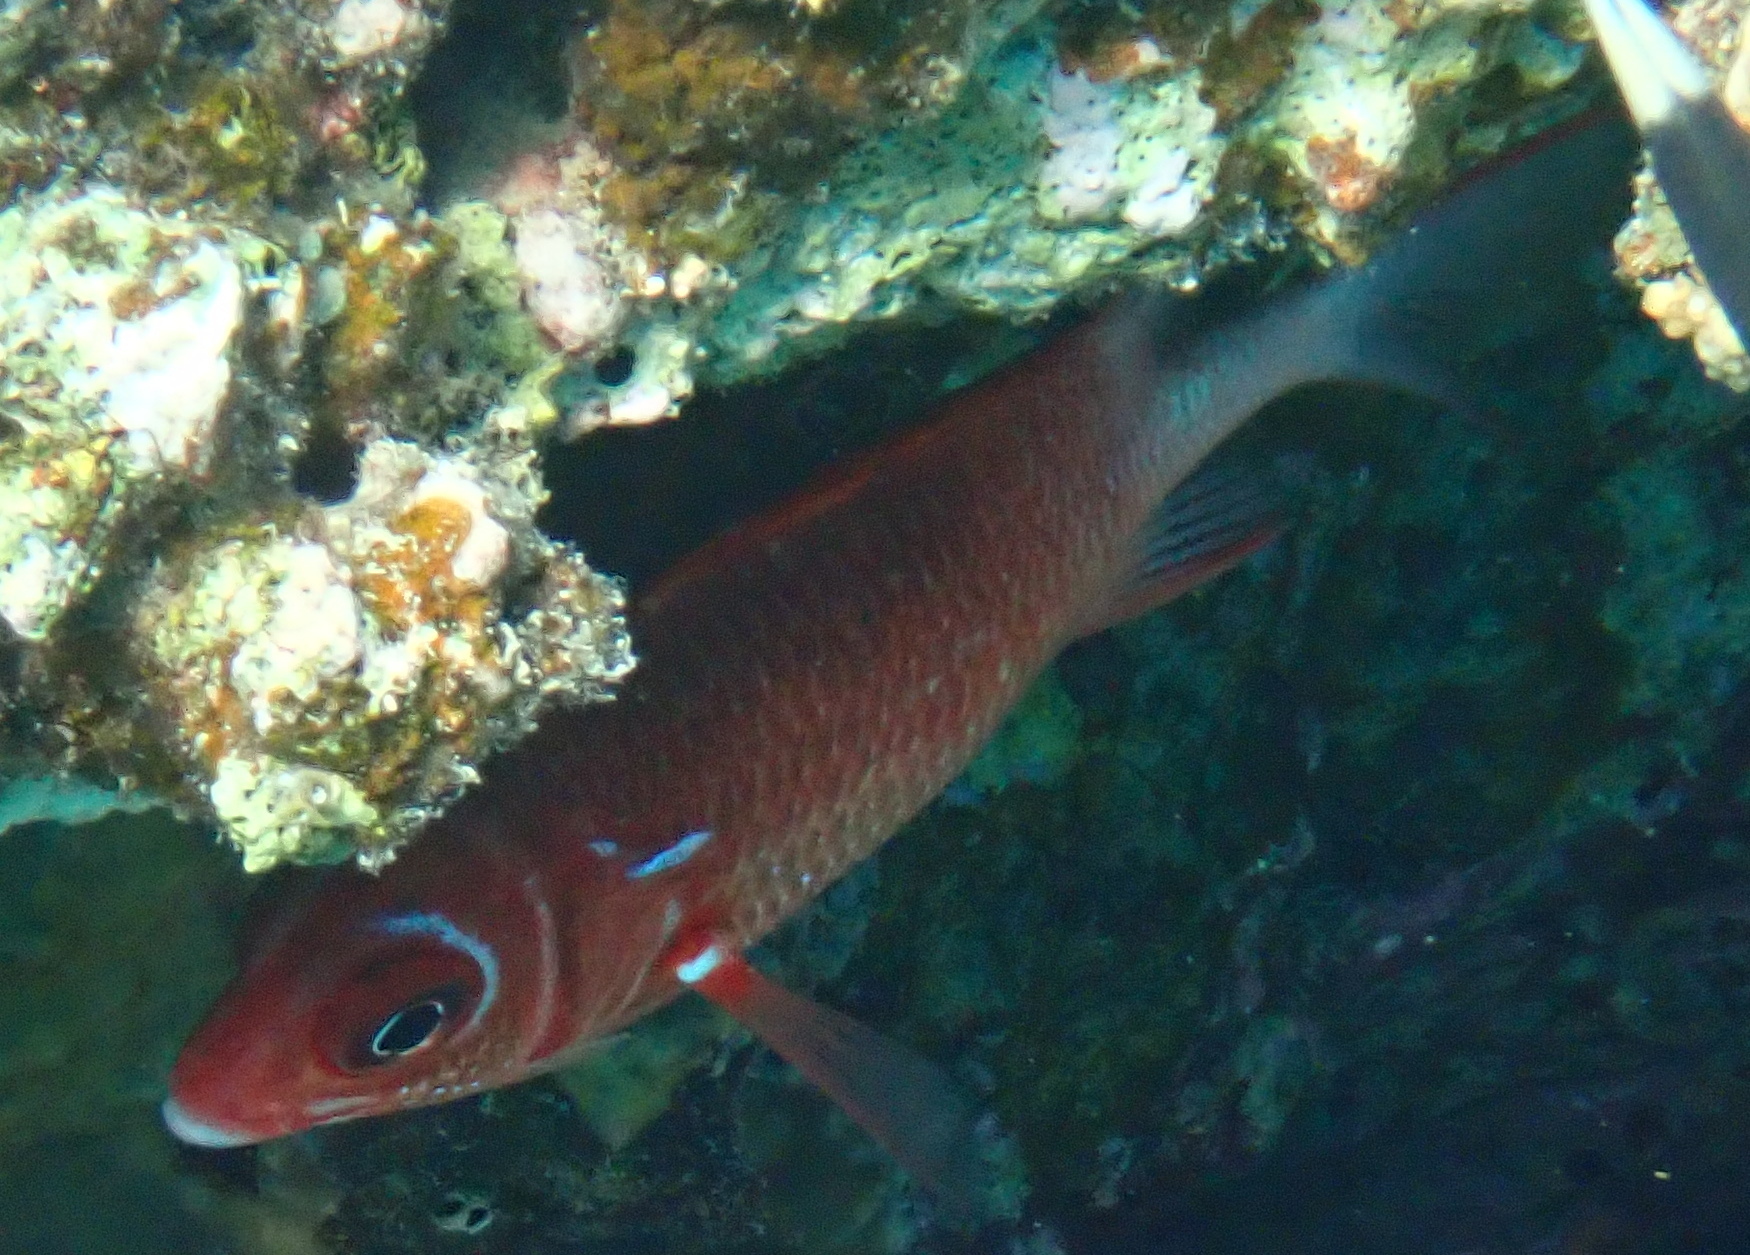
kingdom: Animalia
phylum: Chordata
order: Beryciformes
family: Holocentridae
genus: Sargocentron
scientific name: Sargocentron caudimaculatum
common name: Fanfin soldier
